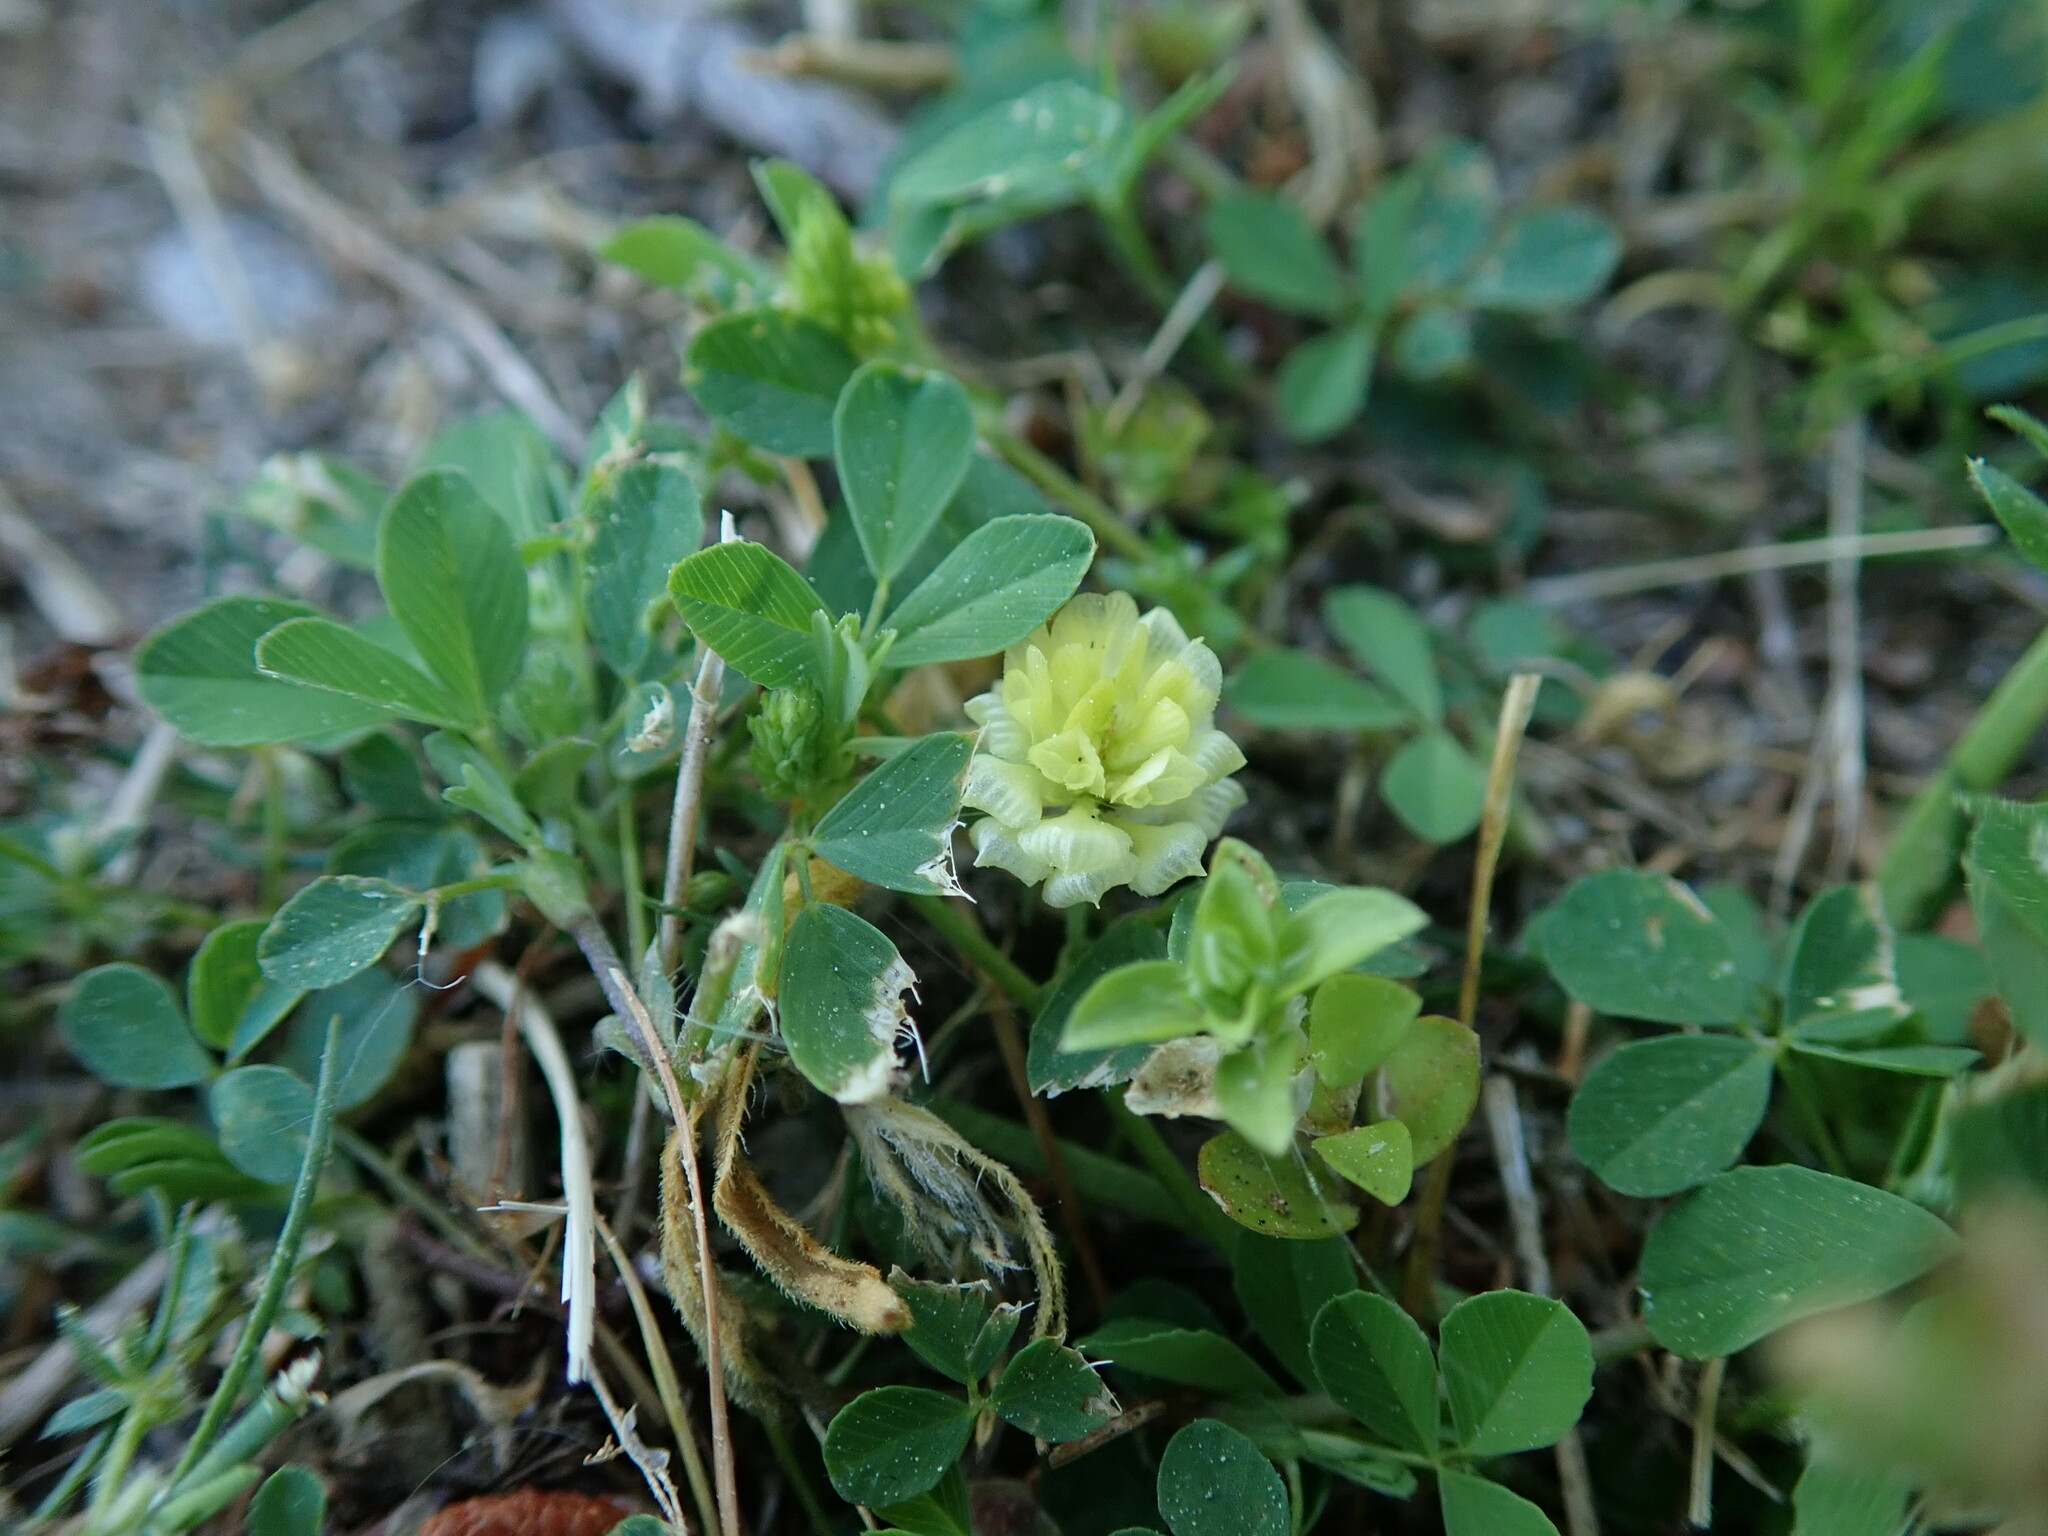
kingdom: Plantae
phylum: Tracheophyta
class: Magnoliopsida
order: Fabales
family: Fabaceae
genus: Trifolium
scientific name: Trifolium campestre
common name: Field clover
